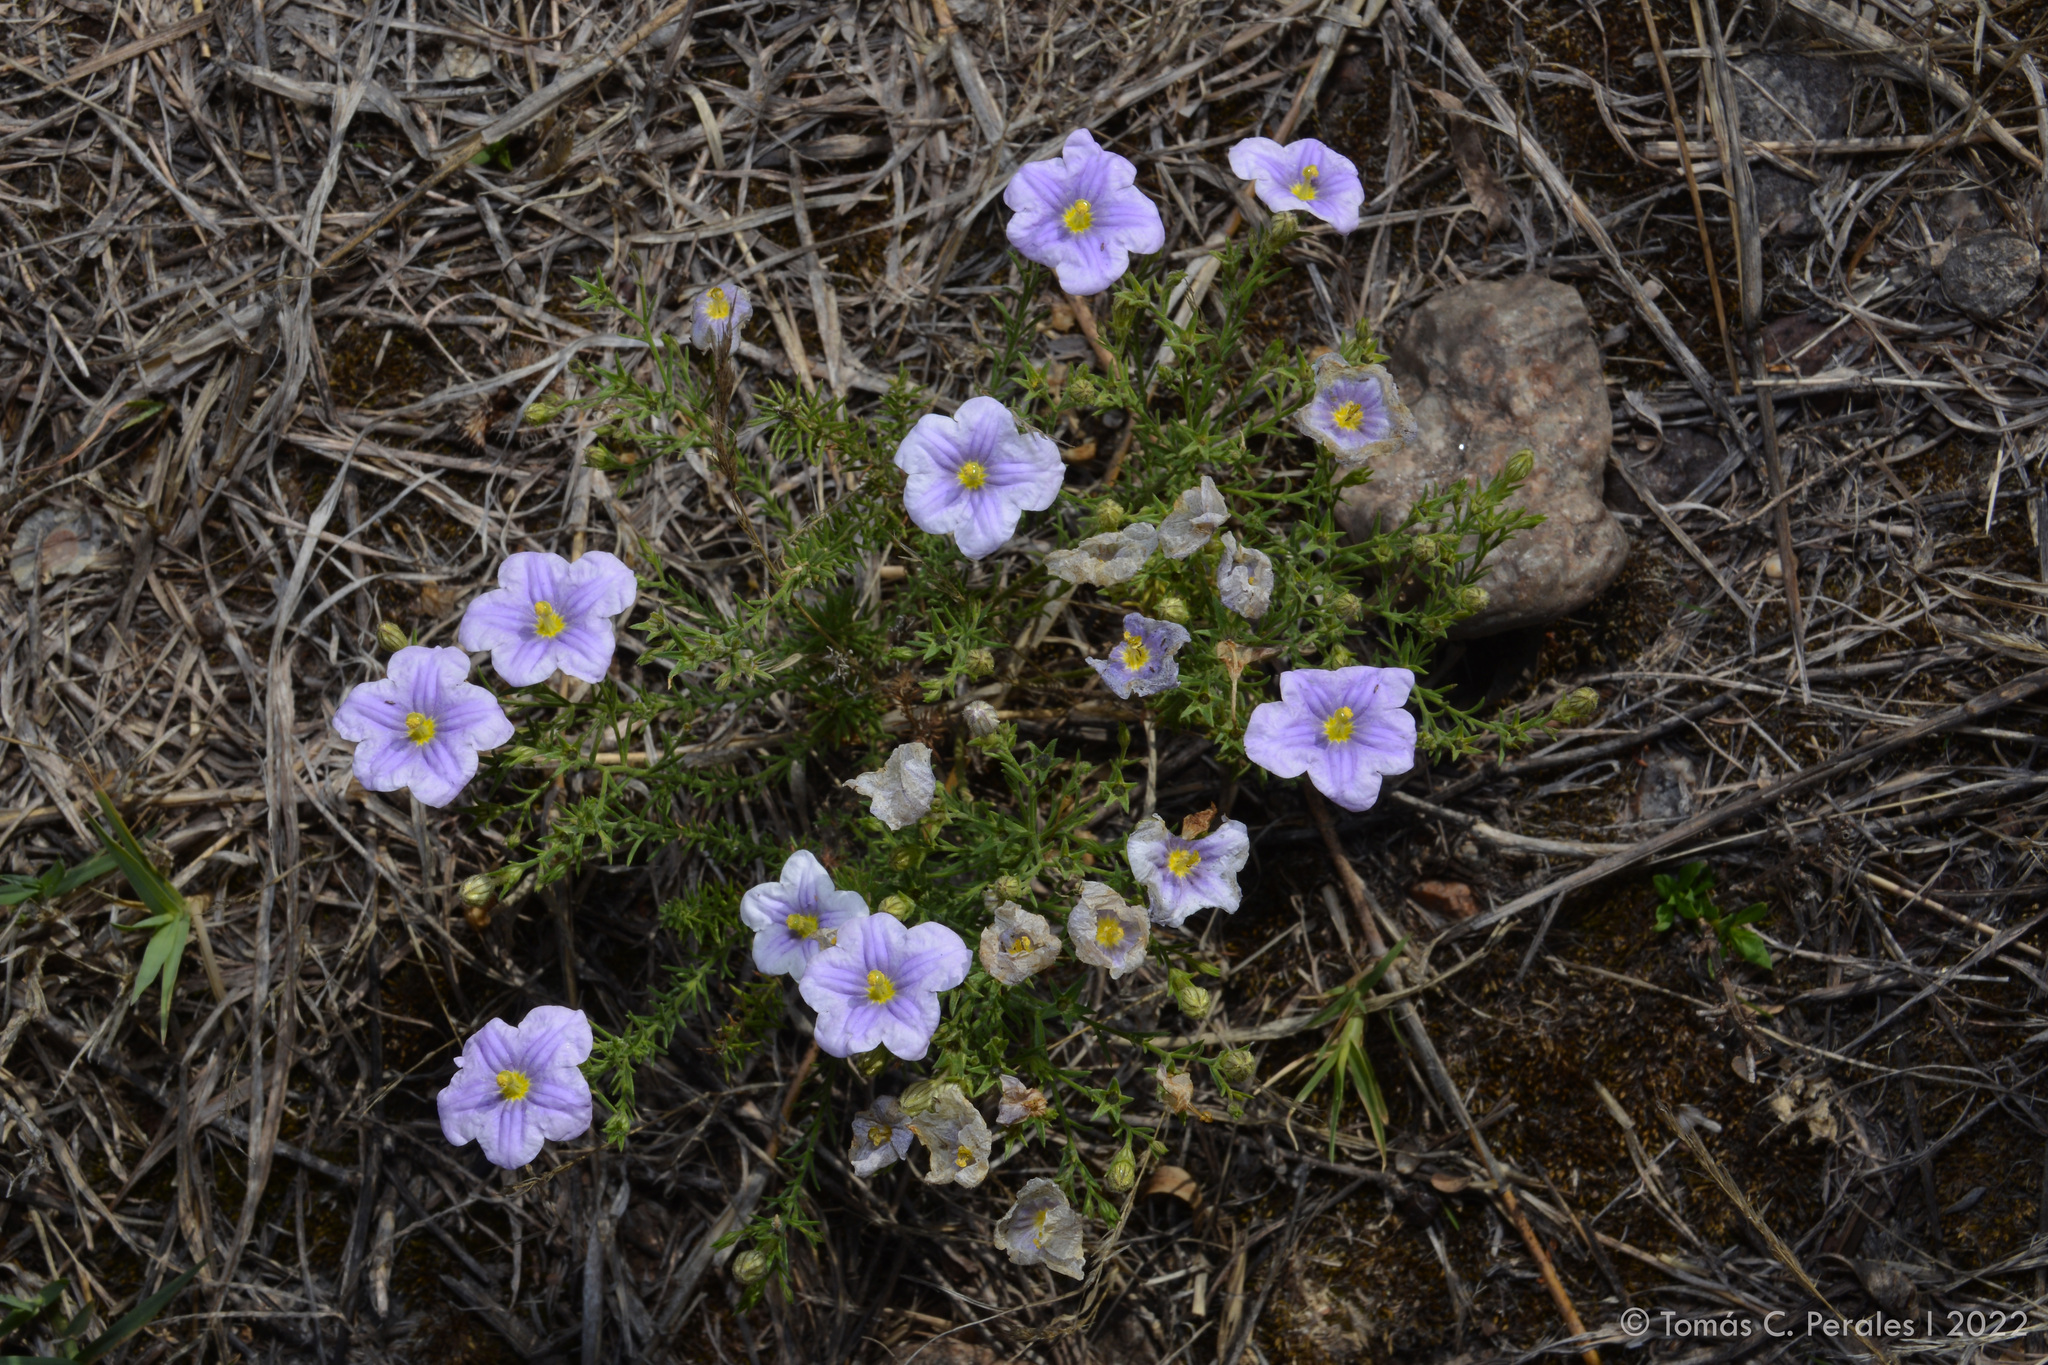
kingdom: Plantae
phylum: Tracheophyta
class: Magnoliopsida
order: Solanales
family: Solanaceae
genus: Nierembergia
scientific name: Nierembergia linariifolia
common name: Dwarf cupflower
